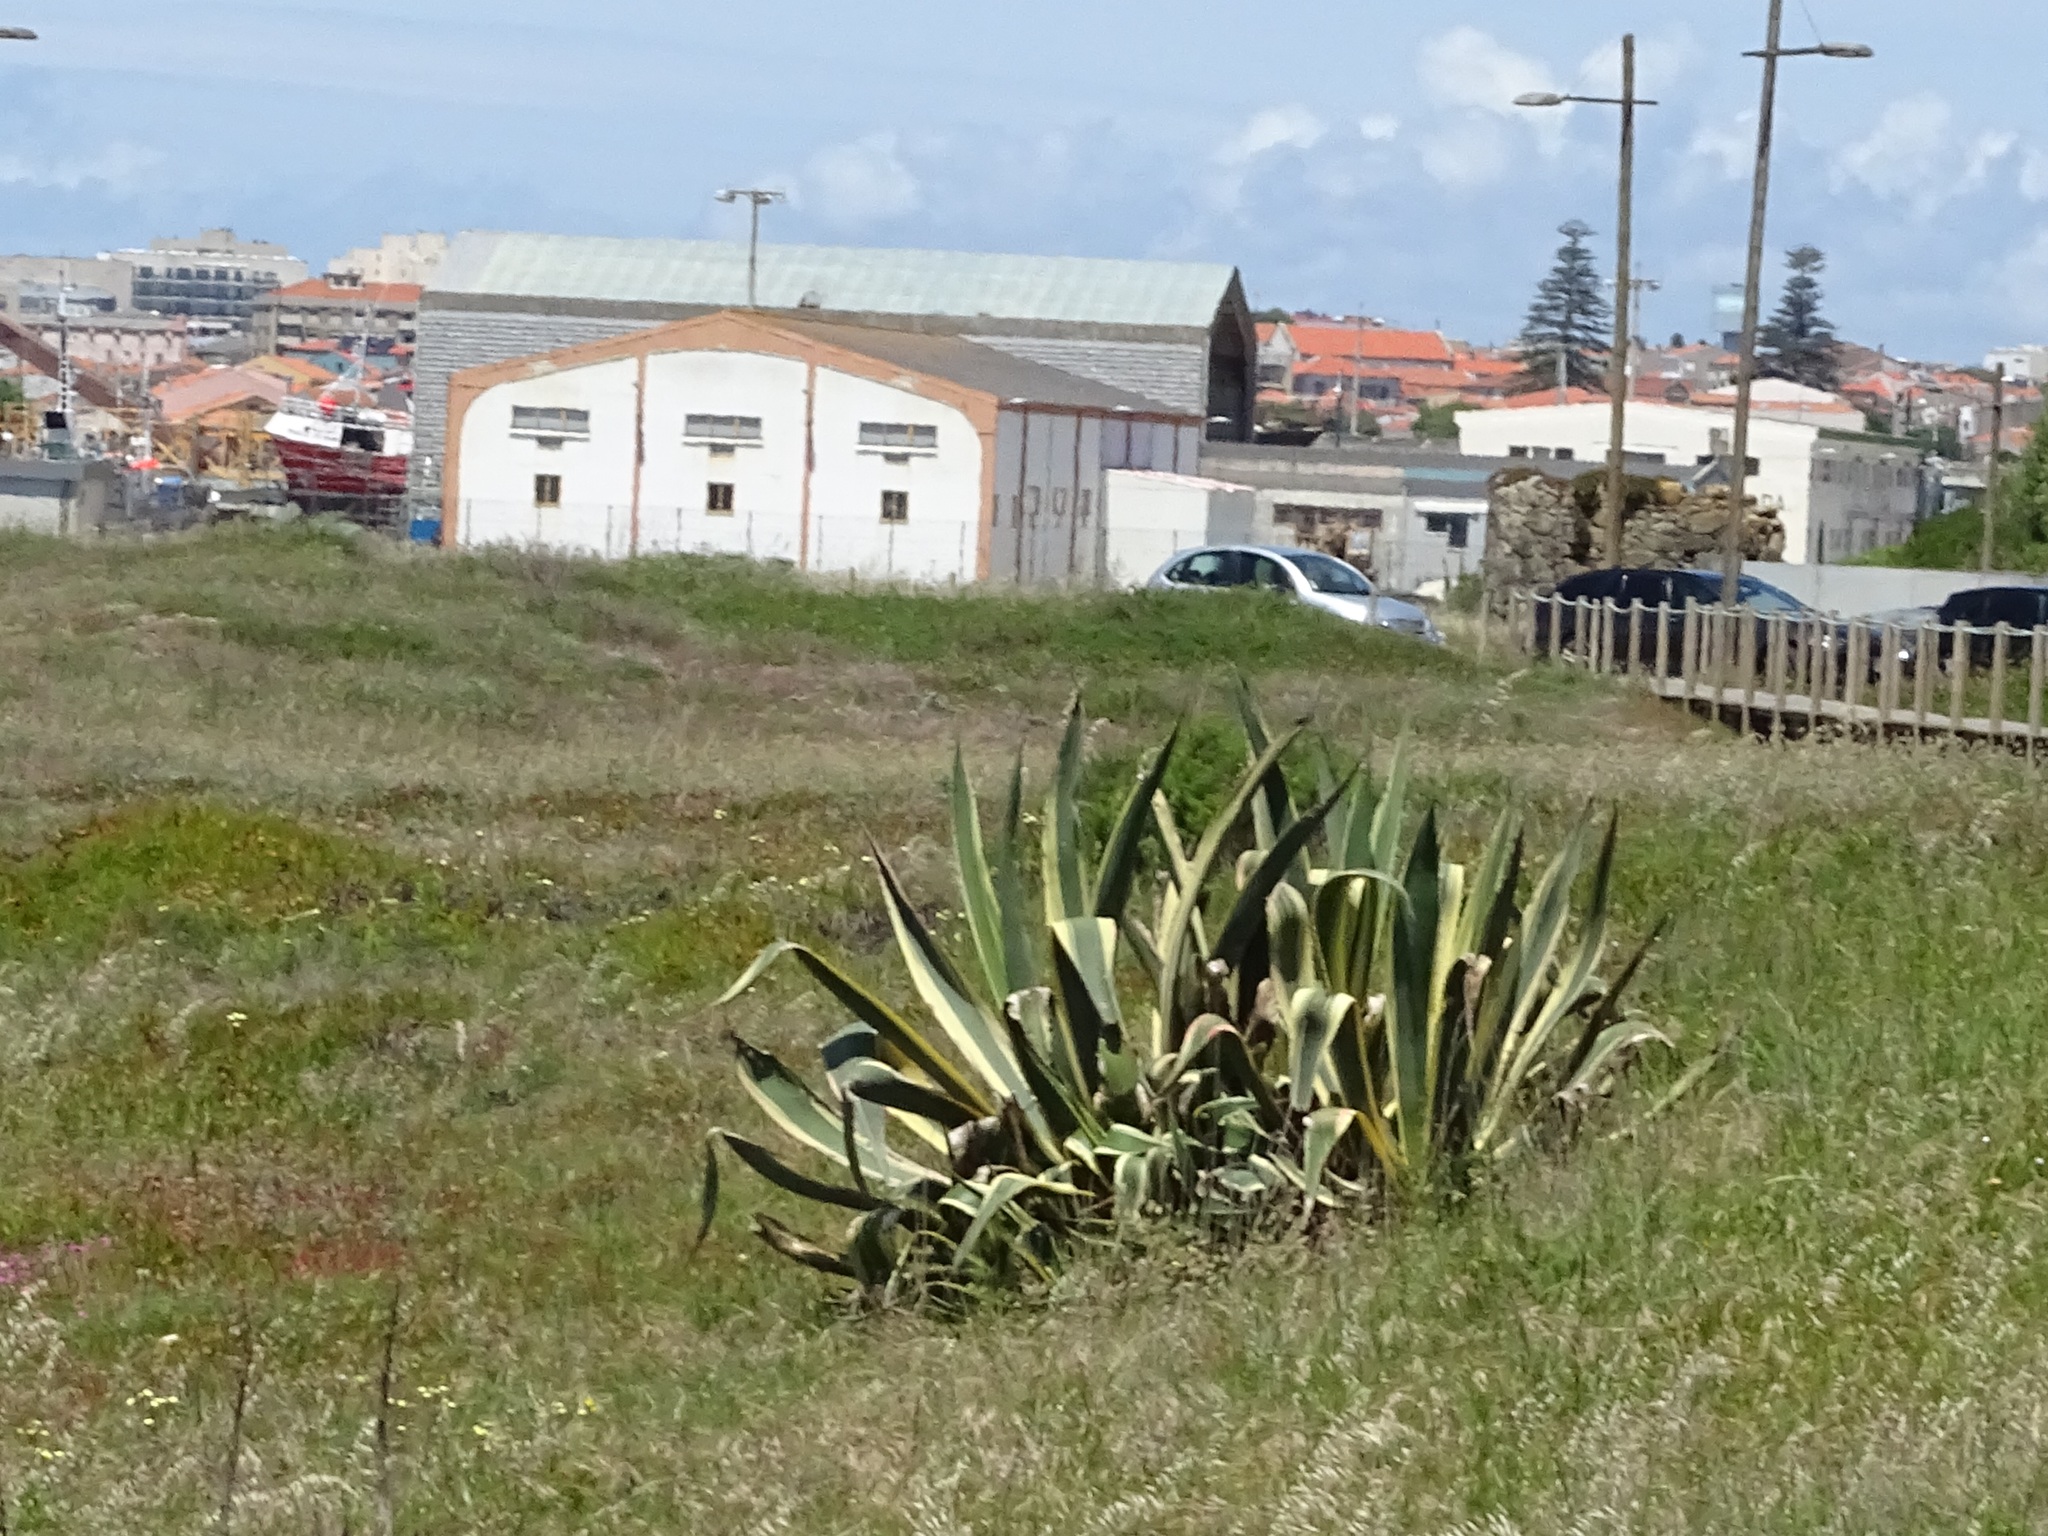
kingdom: Plantae
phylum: Tracheophyta
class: Liliopsida
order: Asparagales
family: Asparagaceae
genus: Agave
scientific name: Agave americana
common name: Centuryplant
